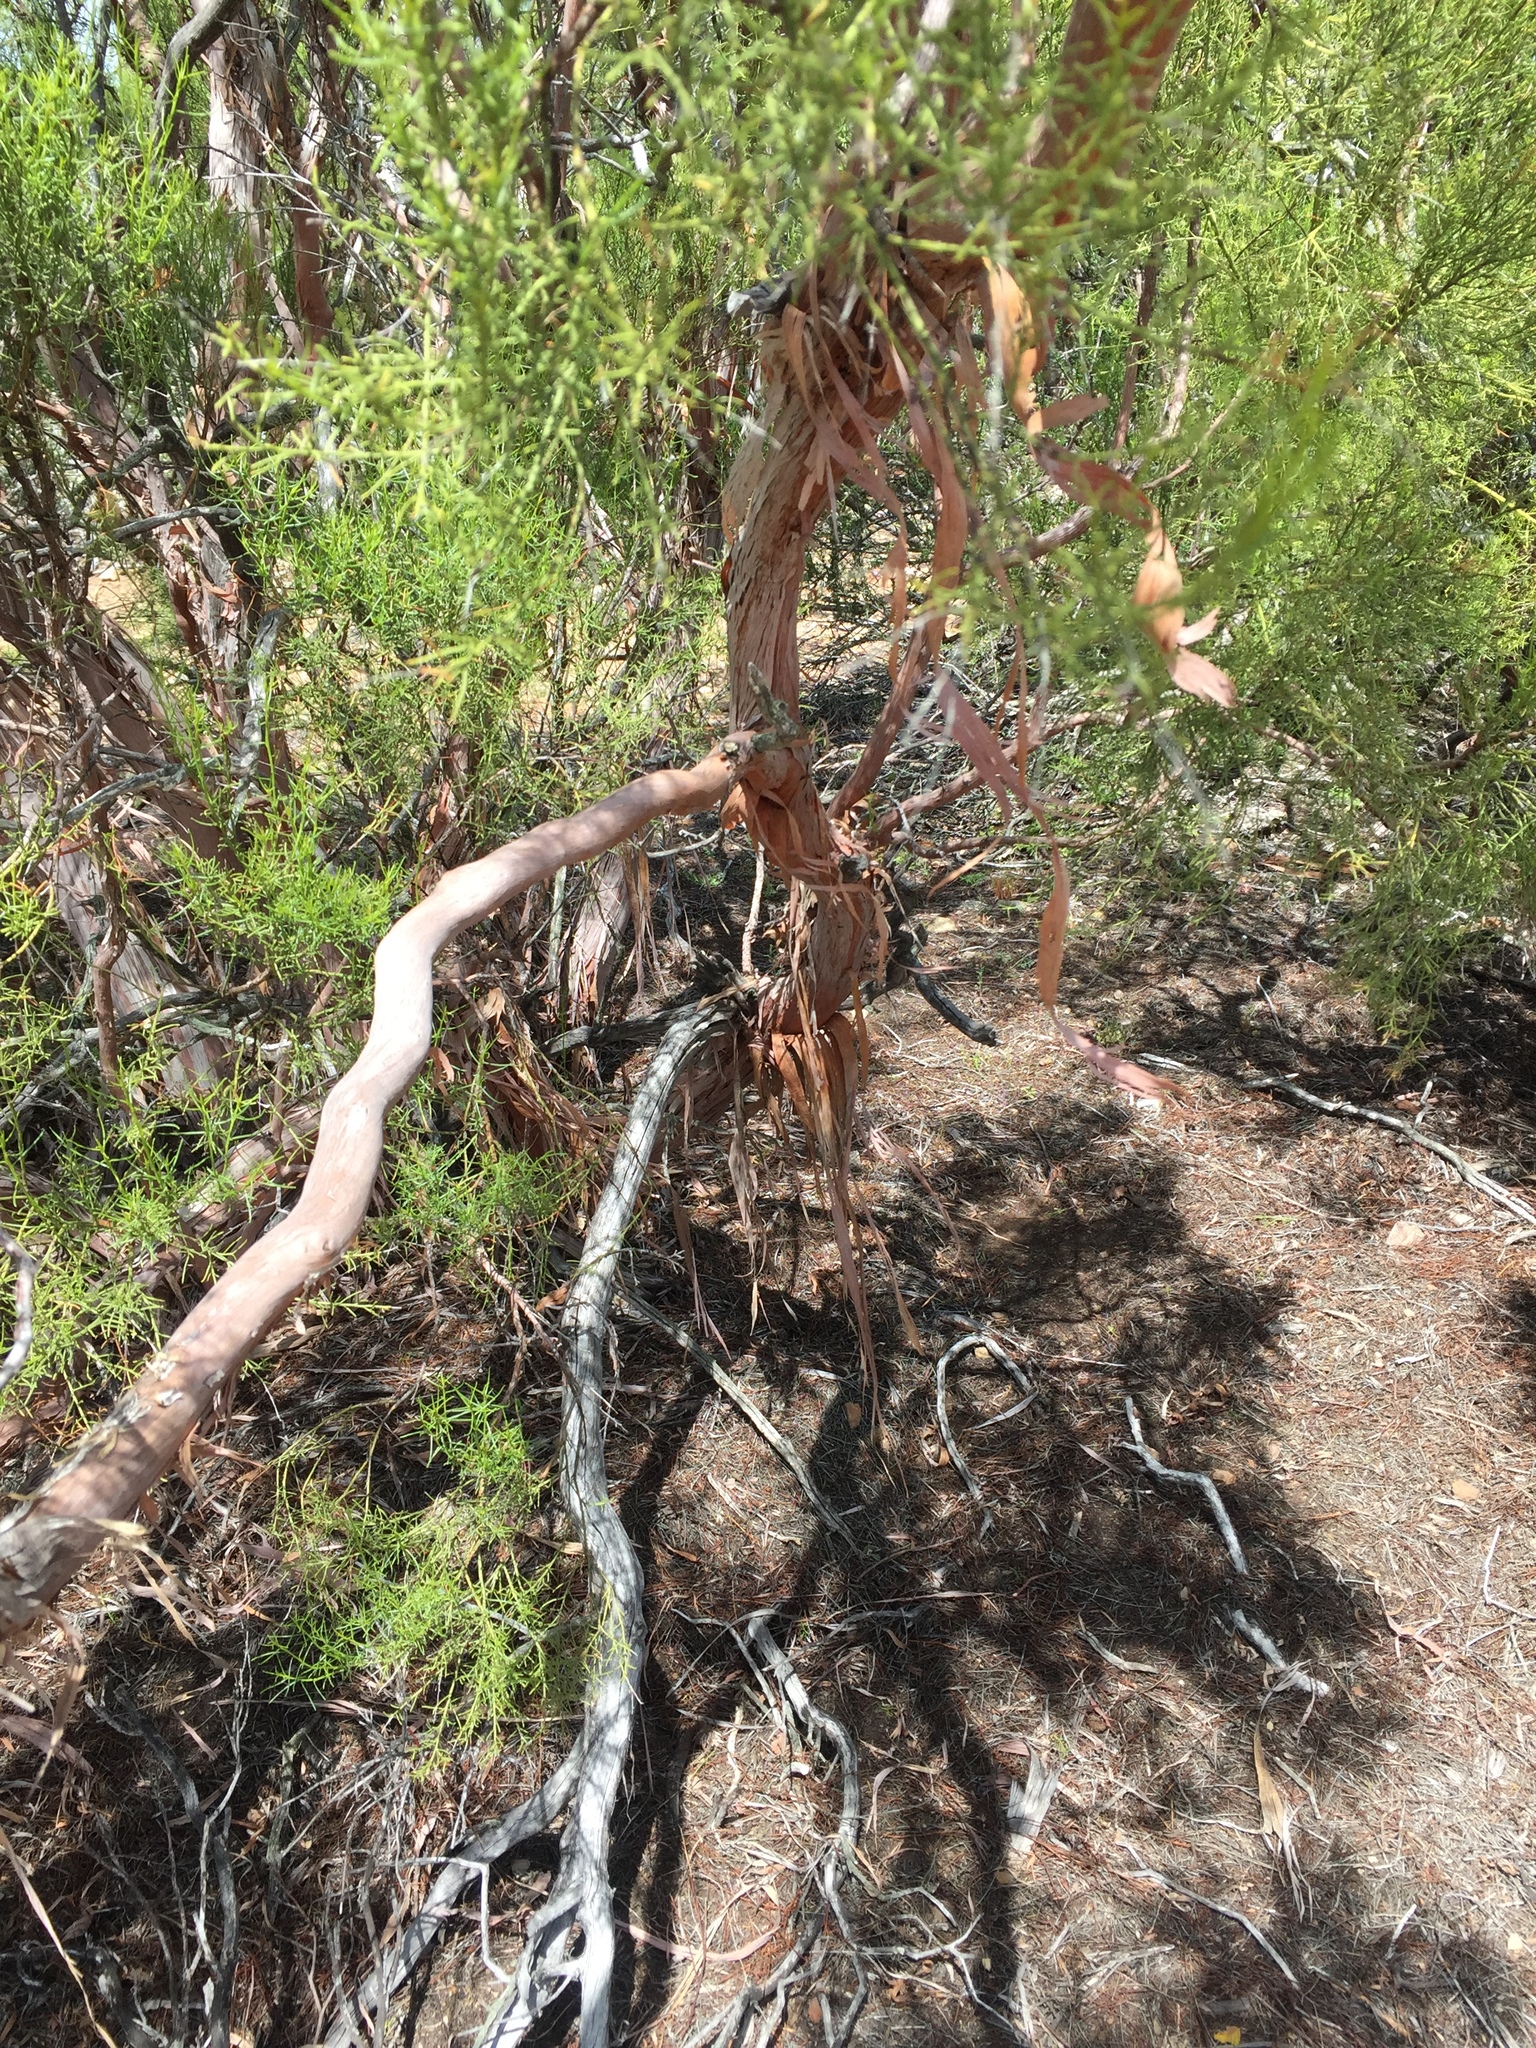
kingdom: Plantae
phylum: Tracheophyta
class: Magnoliopsida
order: Rosales
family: Rosaceae
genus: Adenostoma
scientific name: Adenostoma sparsifolium
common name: Red shank
